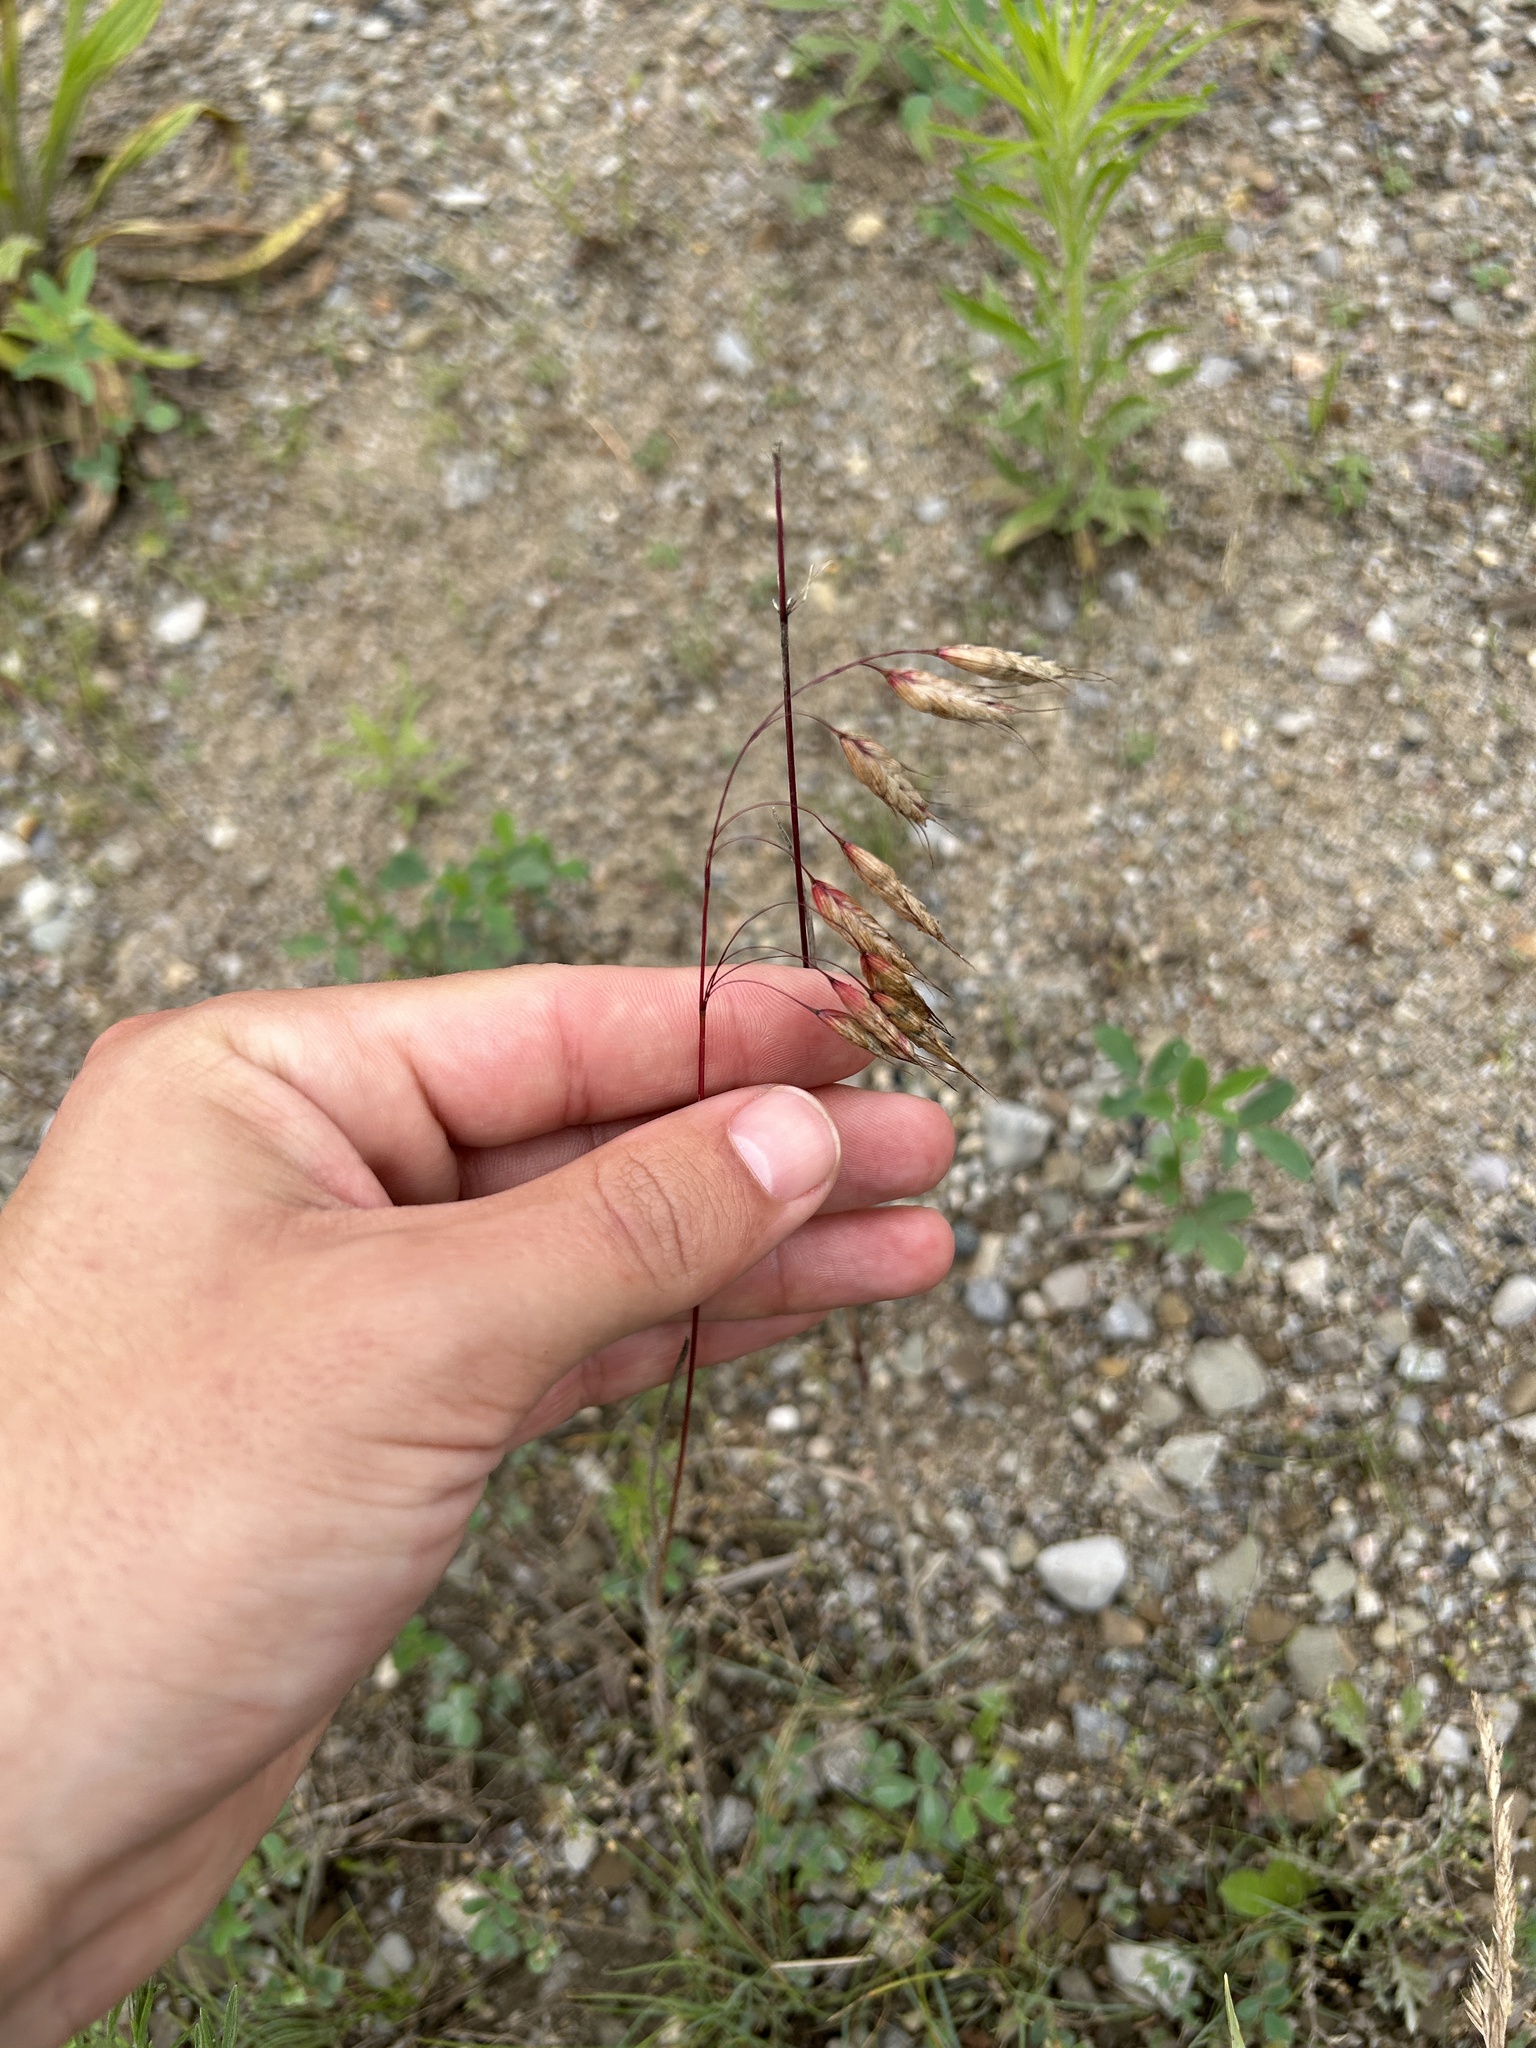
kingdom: Plantae
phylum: Tracheophyta
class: Liliopsida
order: Poales
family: Poaceae
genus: Bromus
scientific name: Bromus tectorum
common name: Cheatgrass
